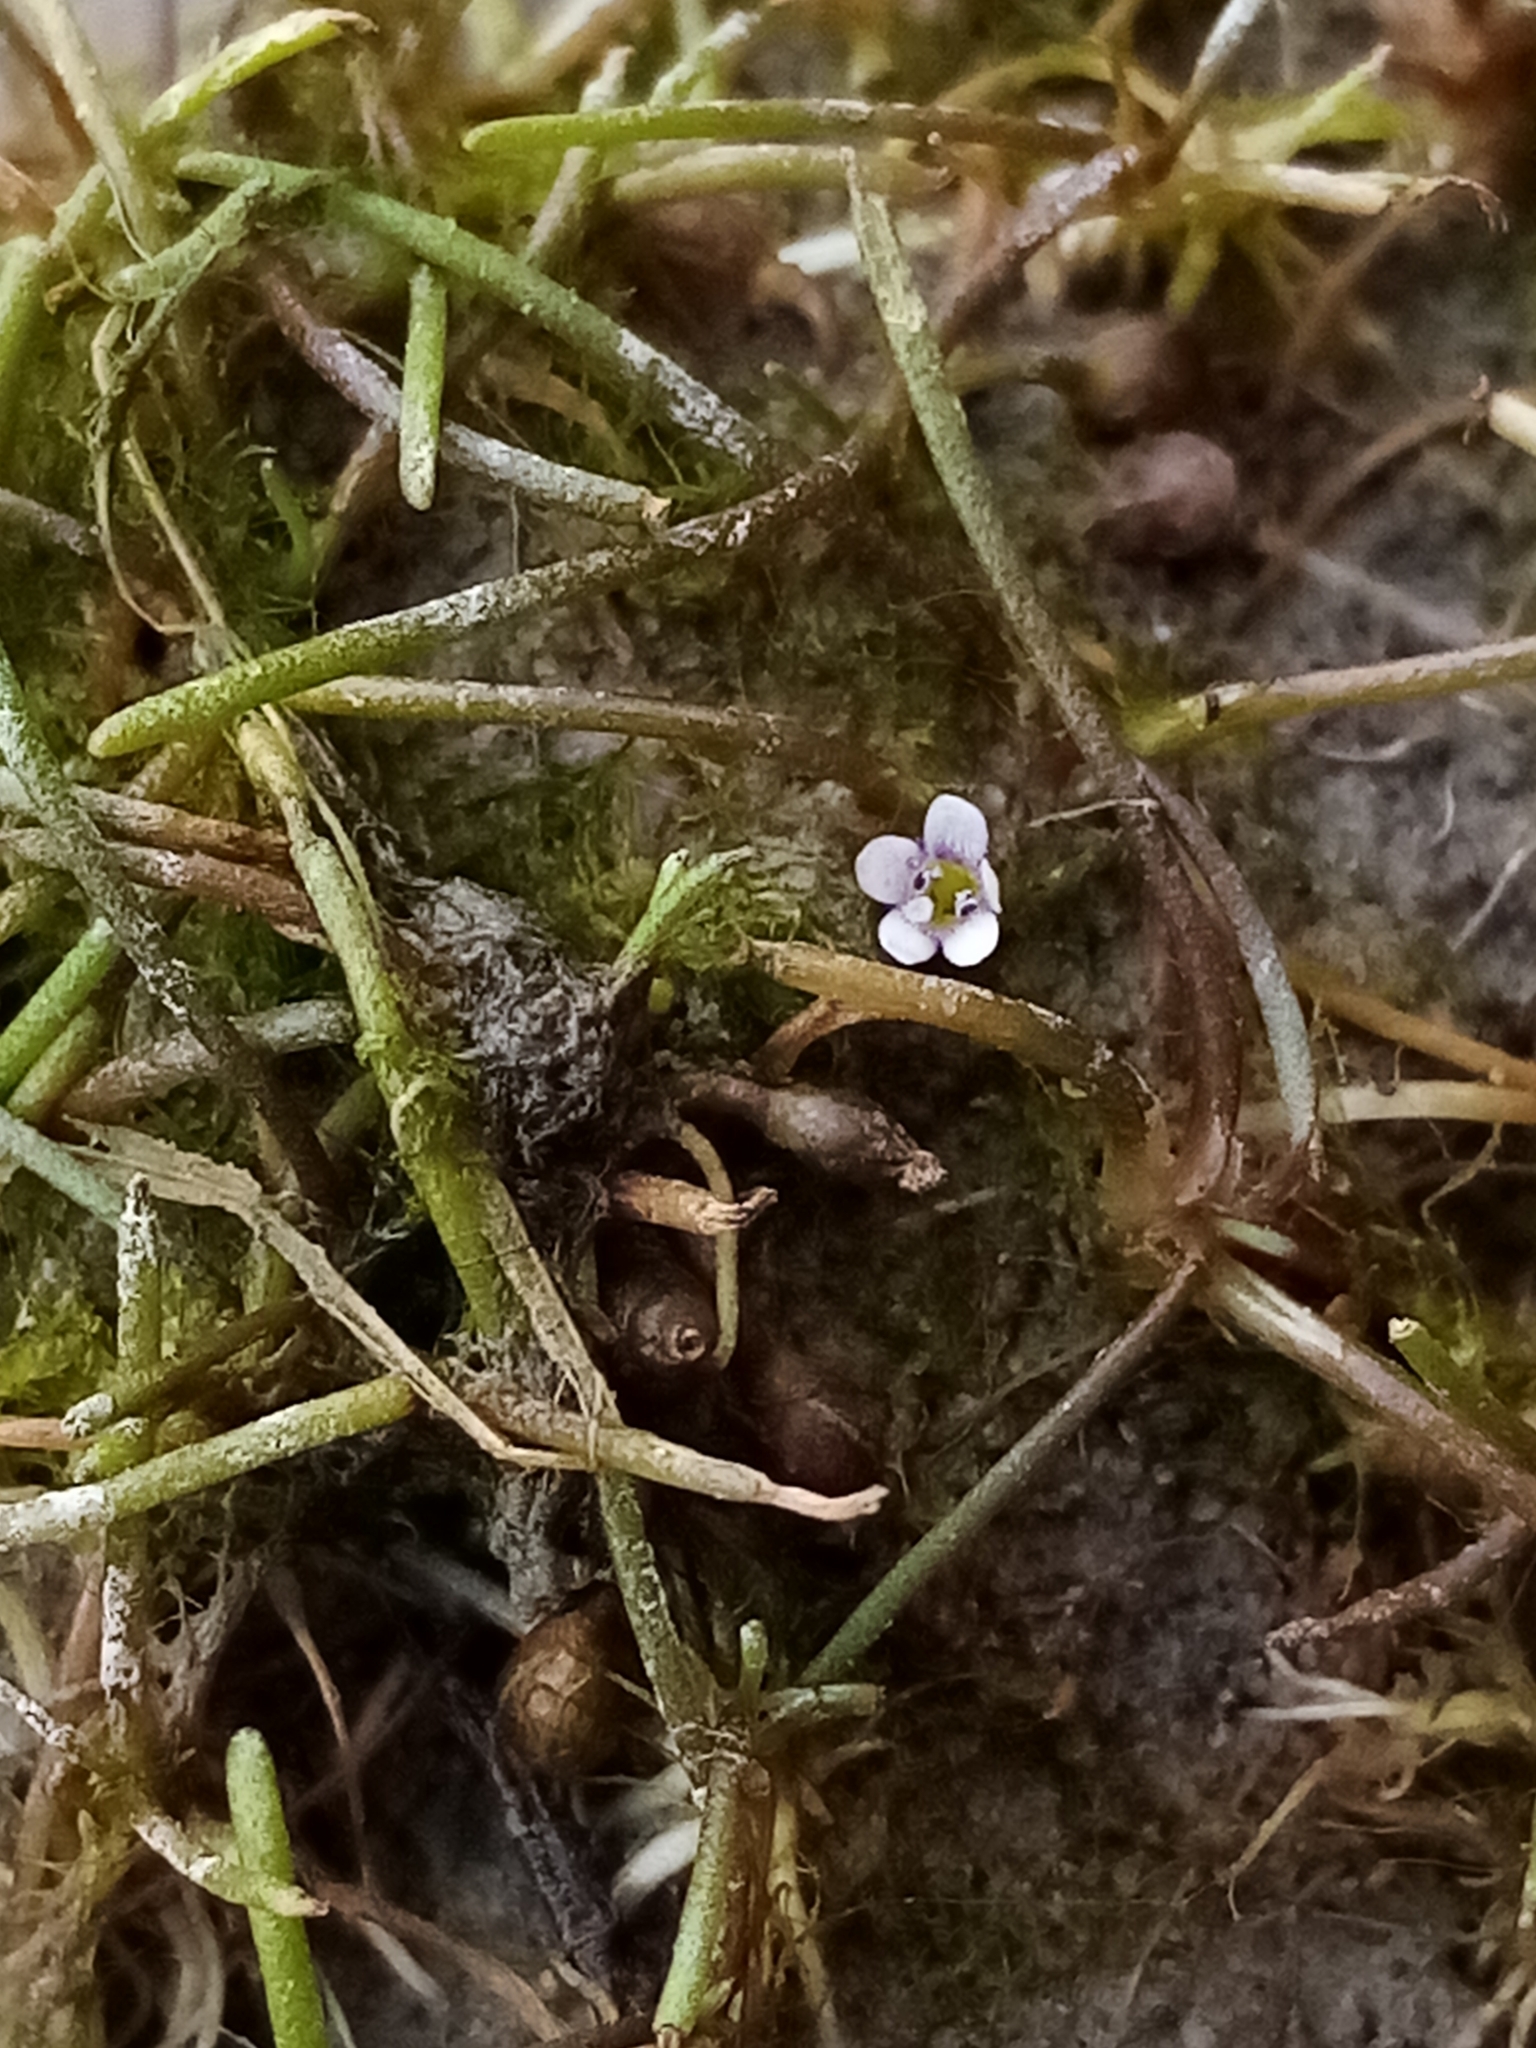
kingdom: Plantae
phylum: Tracheophyta
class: Magnoliopsida
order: Lamiales
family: Scrophulariaceae
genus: Limosella
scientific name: Limosella australis
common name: Welsh mudwort
